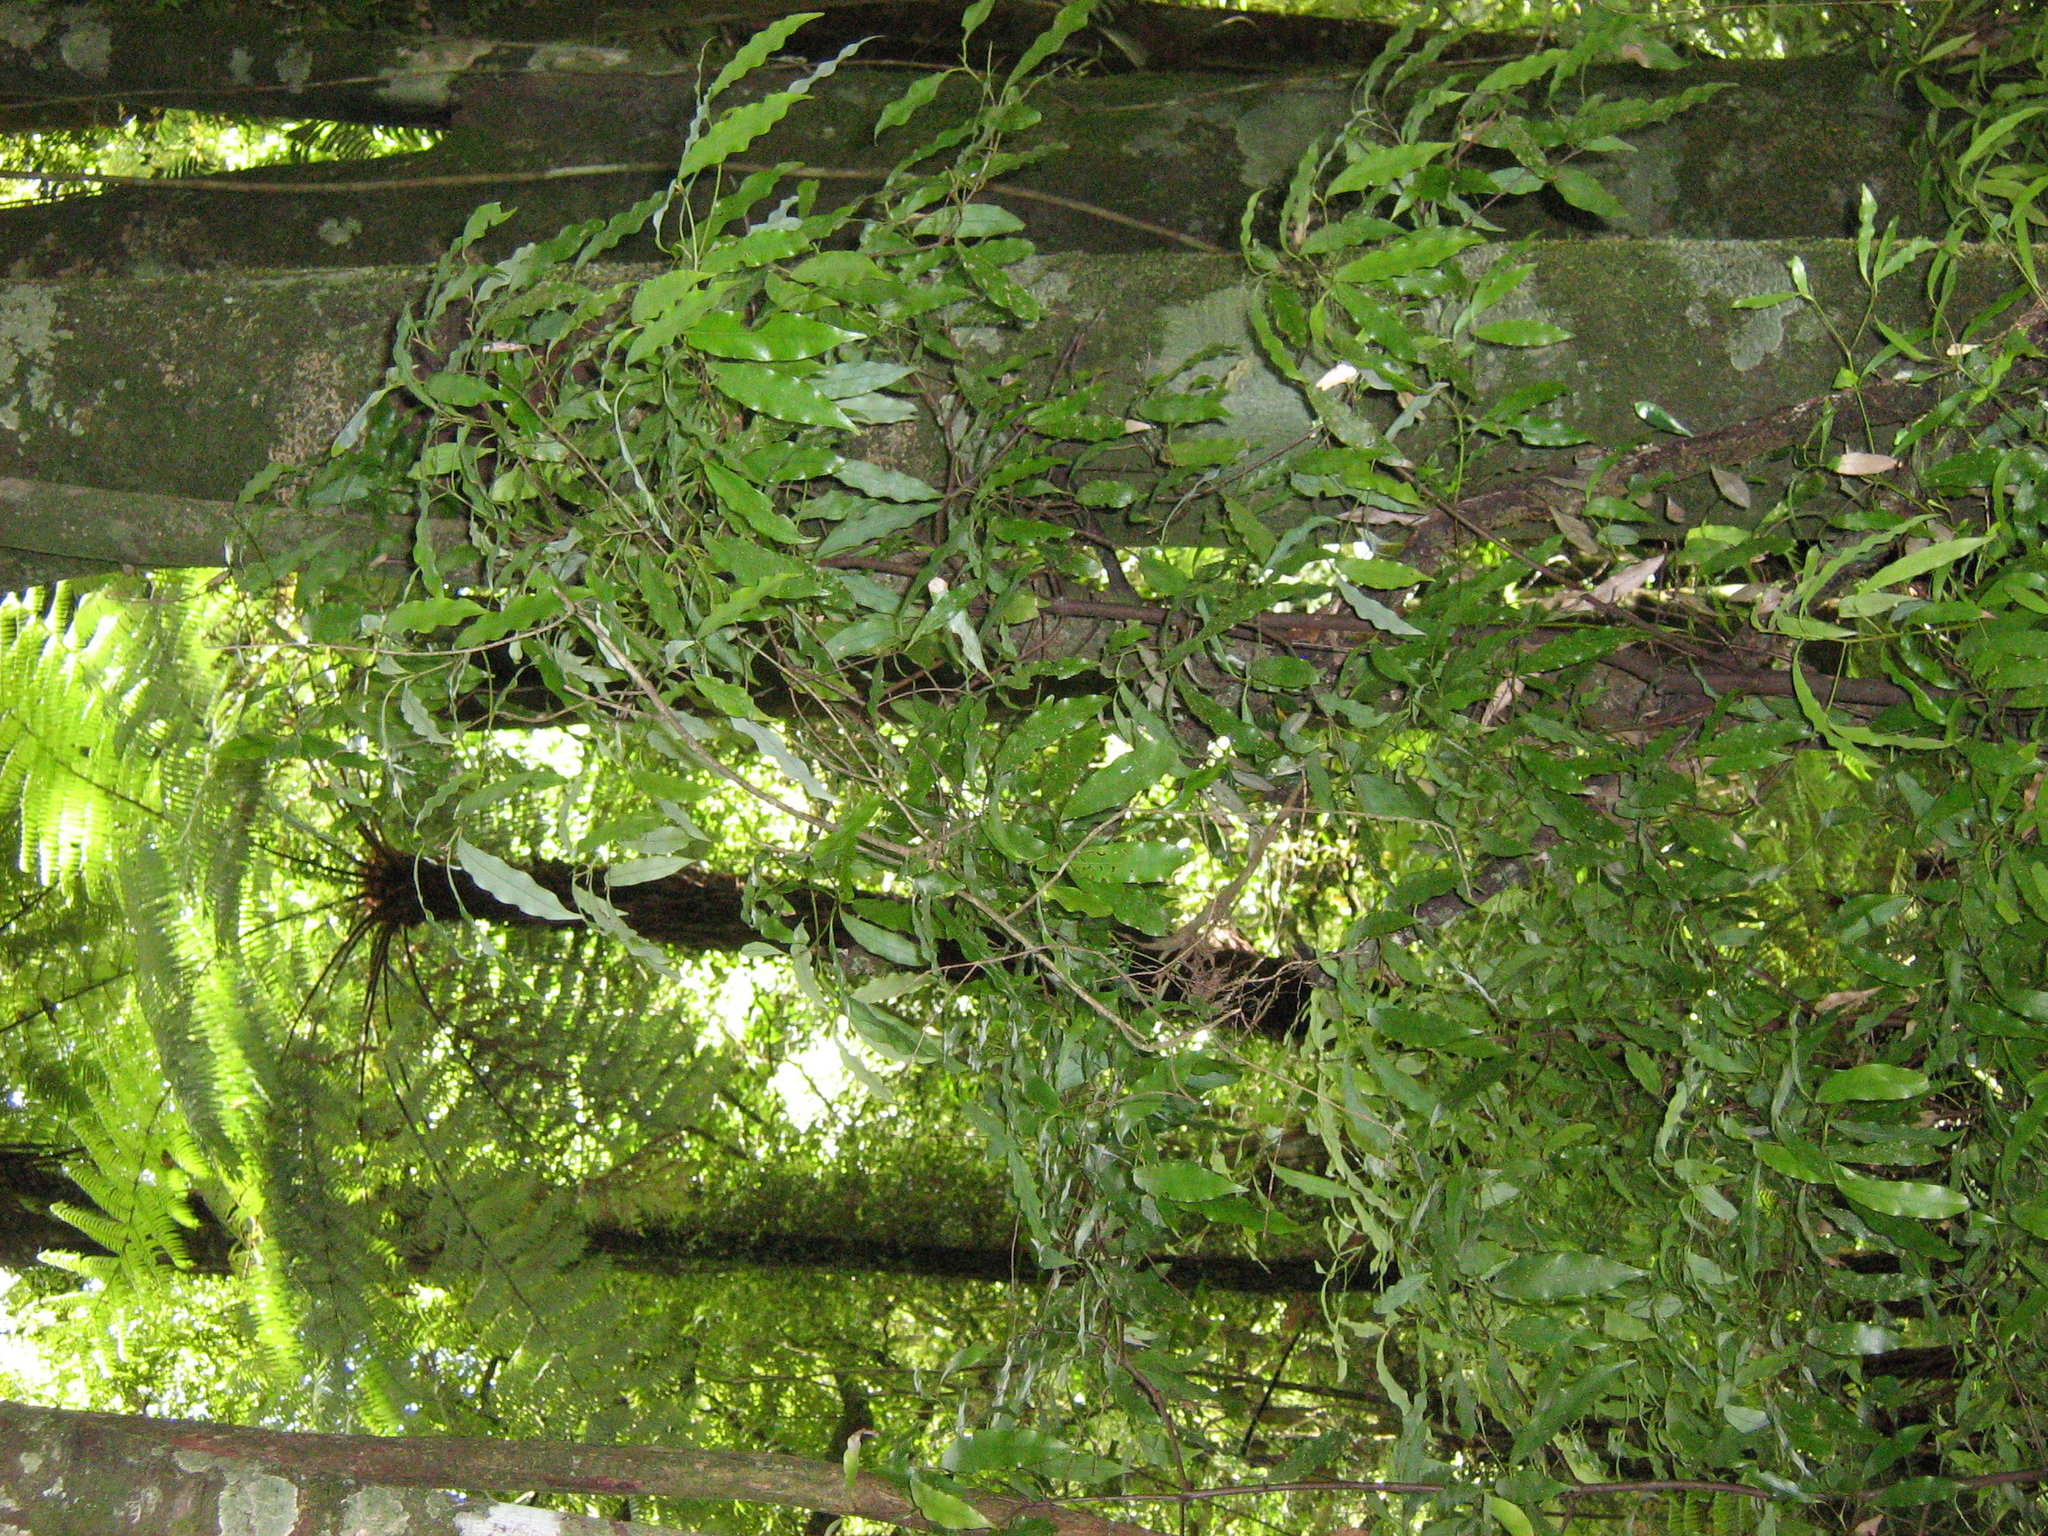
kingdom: Plantae
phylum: Tracheophyta
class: Magnoliopsida
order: Laurales
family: Lauraceae
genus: Beilschmiedia
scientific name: Beilschmiedia tawa
